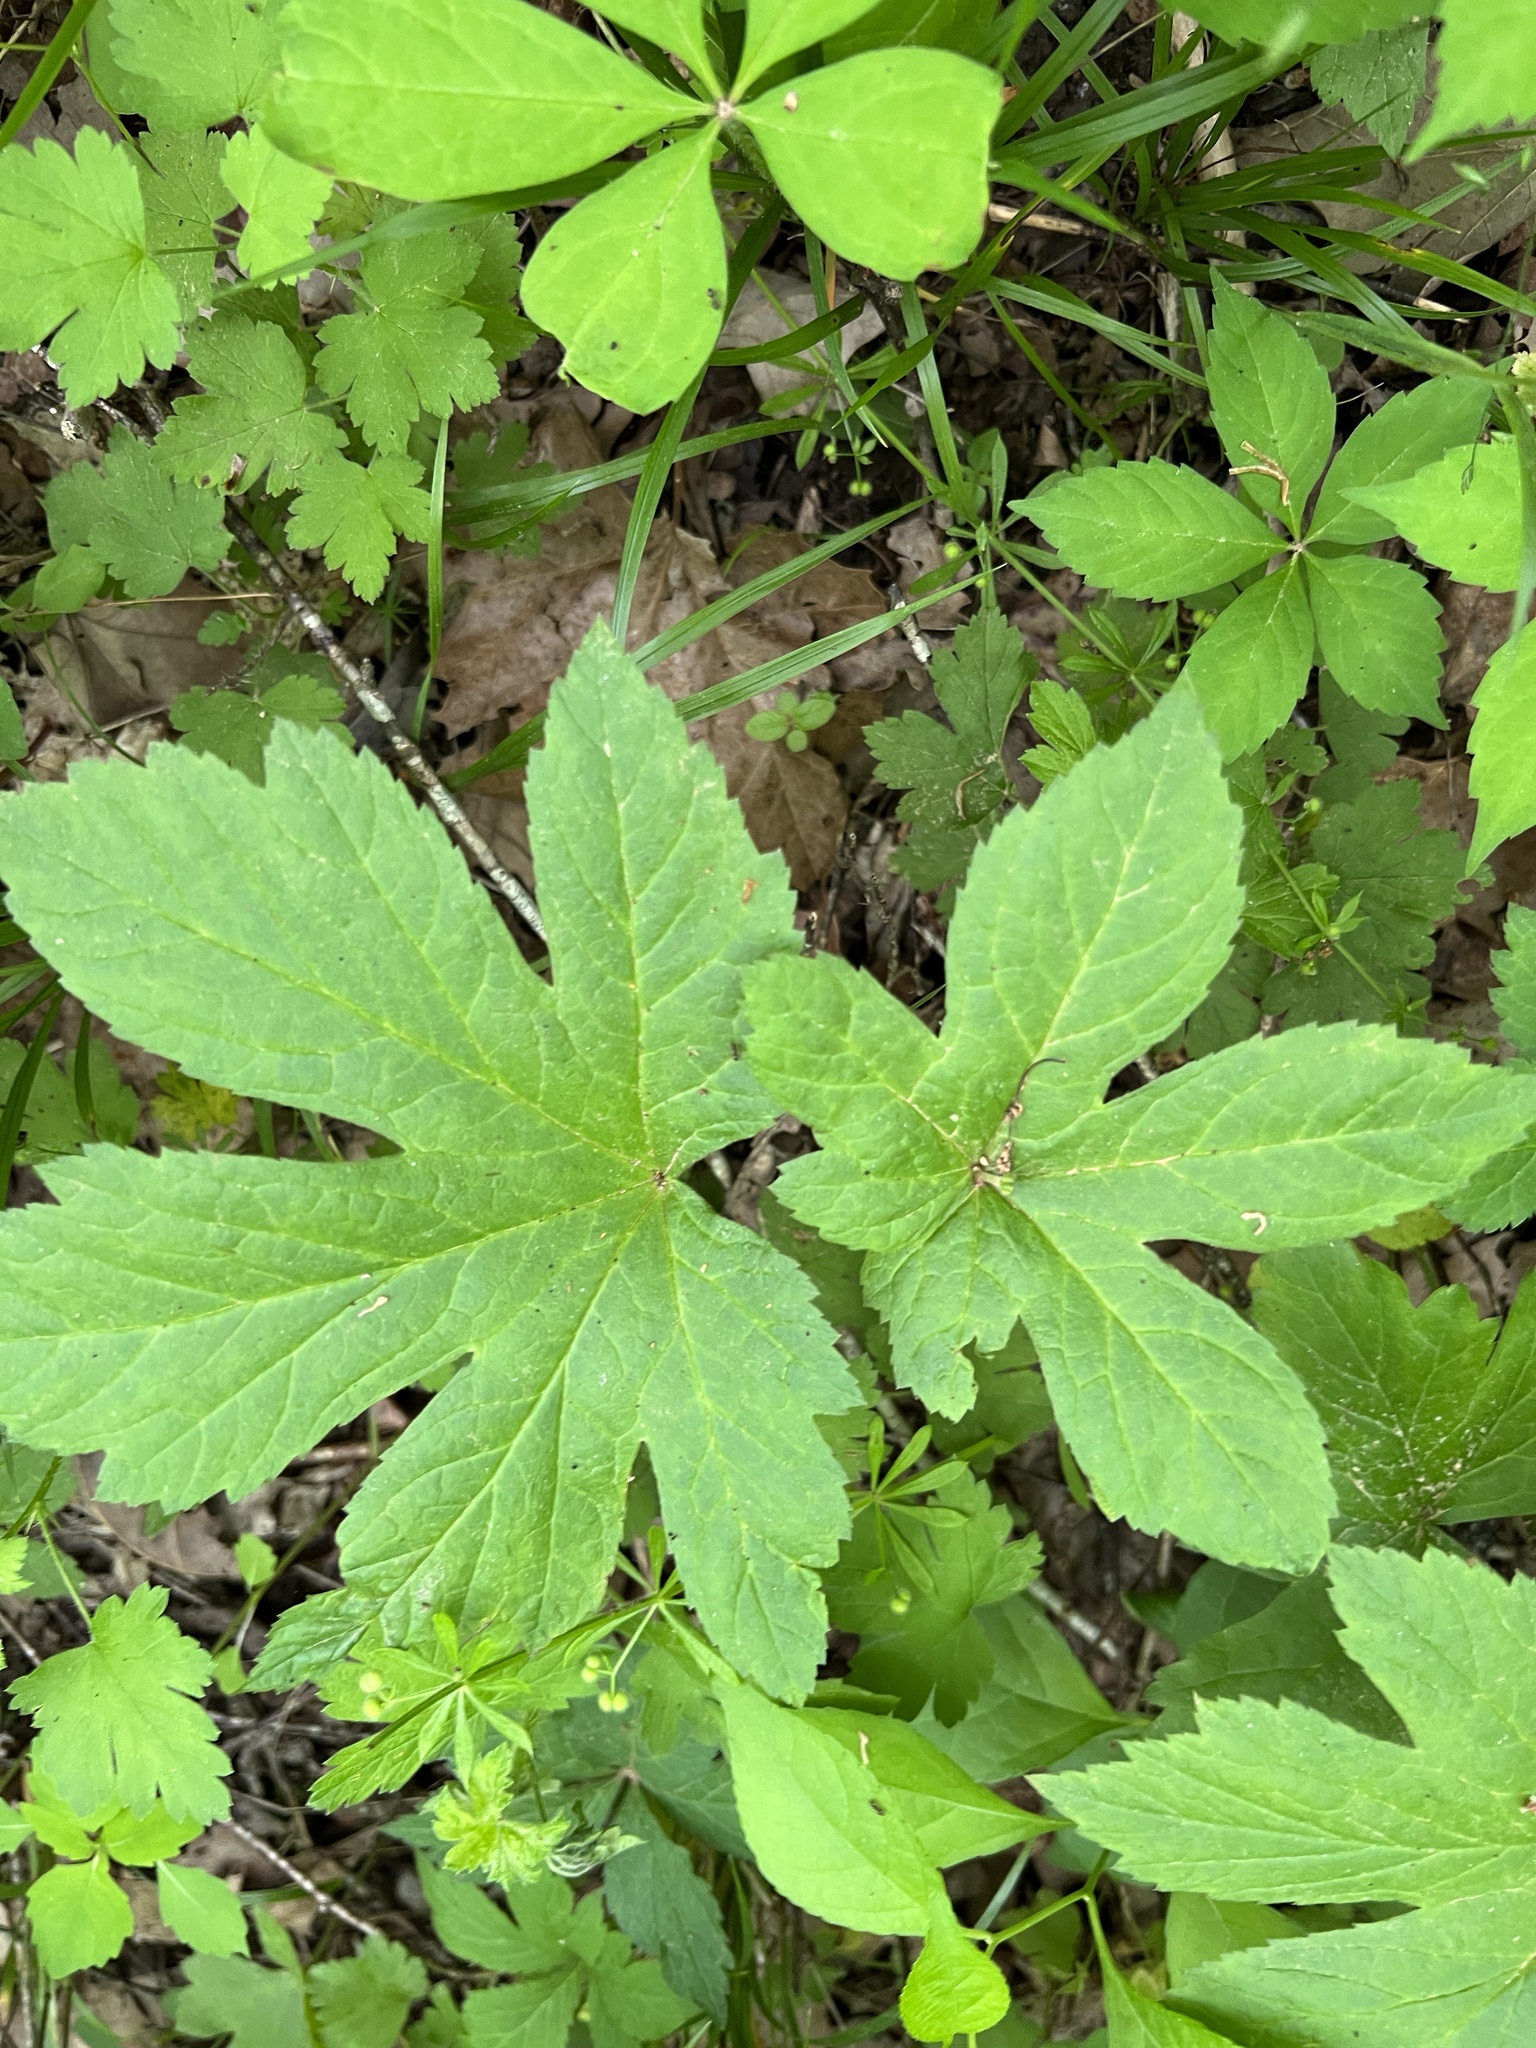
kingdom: Plantae
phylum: Tracheophyta
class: Magnoliopsida
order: Ranunculales
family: Ranunculaceae
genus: Hydrastis
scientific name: Hydrastis canadensis
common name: Goldenseal
